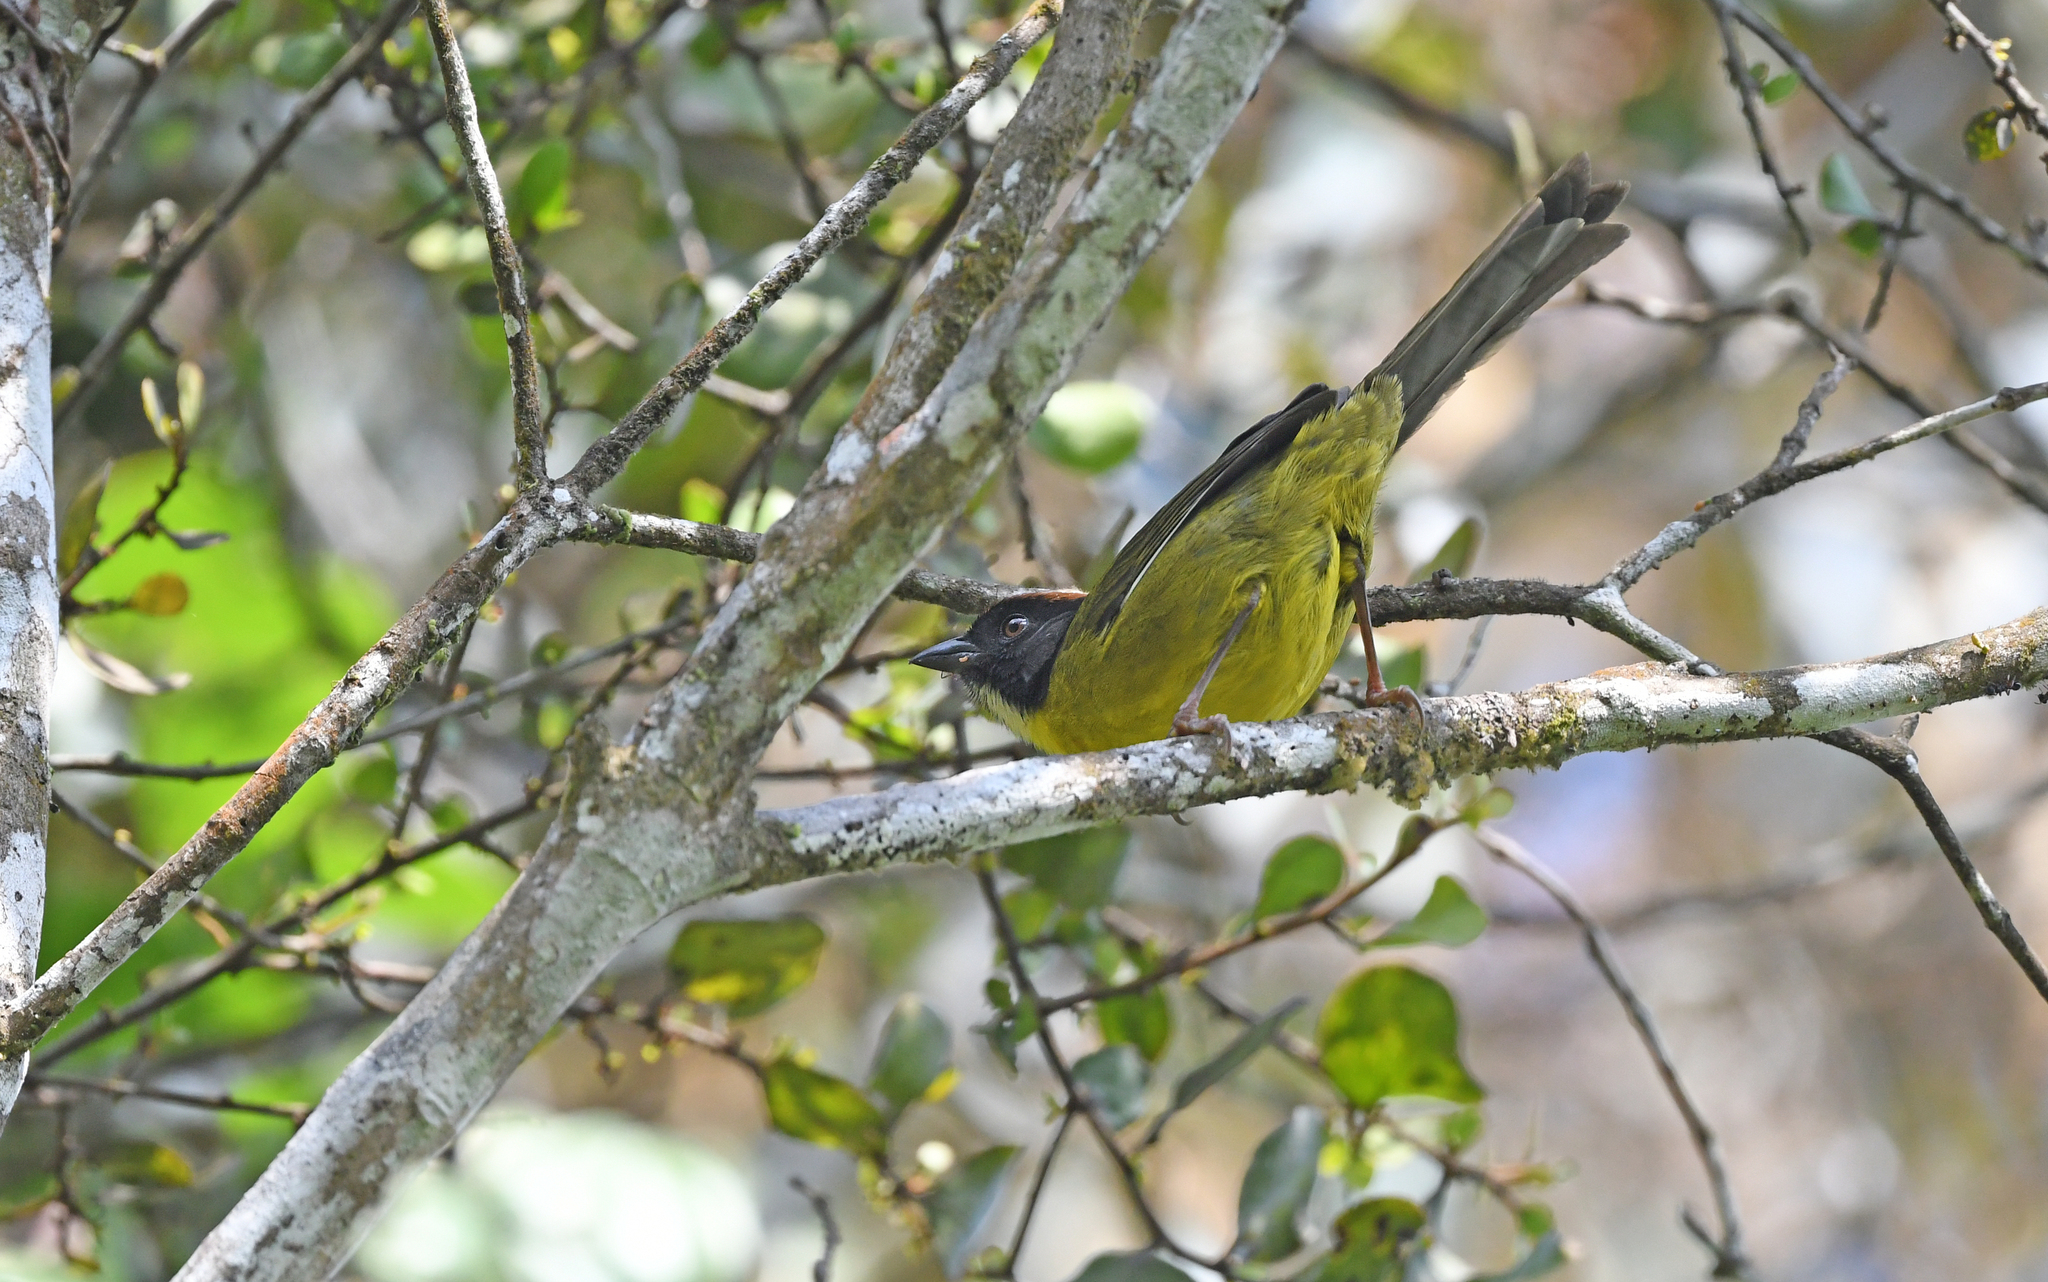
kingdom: Animalia
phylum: Chordata
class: Aves
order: Passeriformes
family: Passerellidae
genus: Atlapetes
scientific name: Atlapetes latinuchus
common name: Yellow-breasted brushfinch
